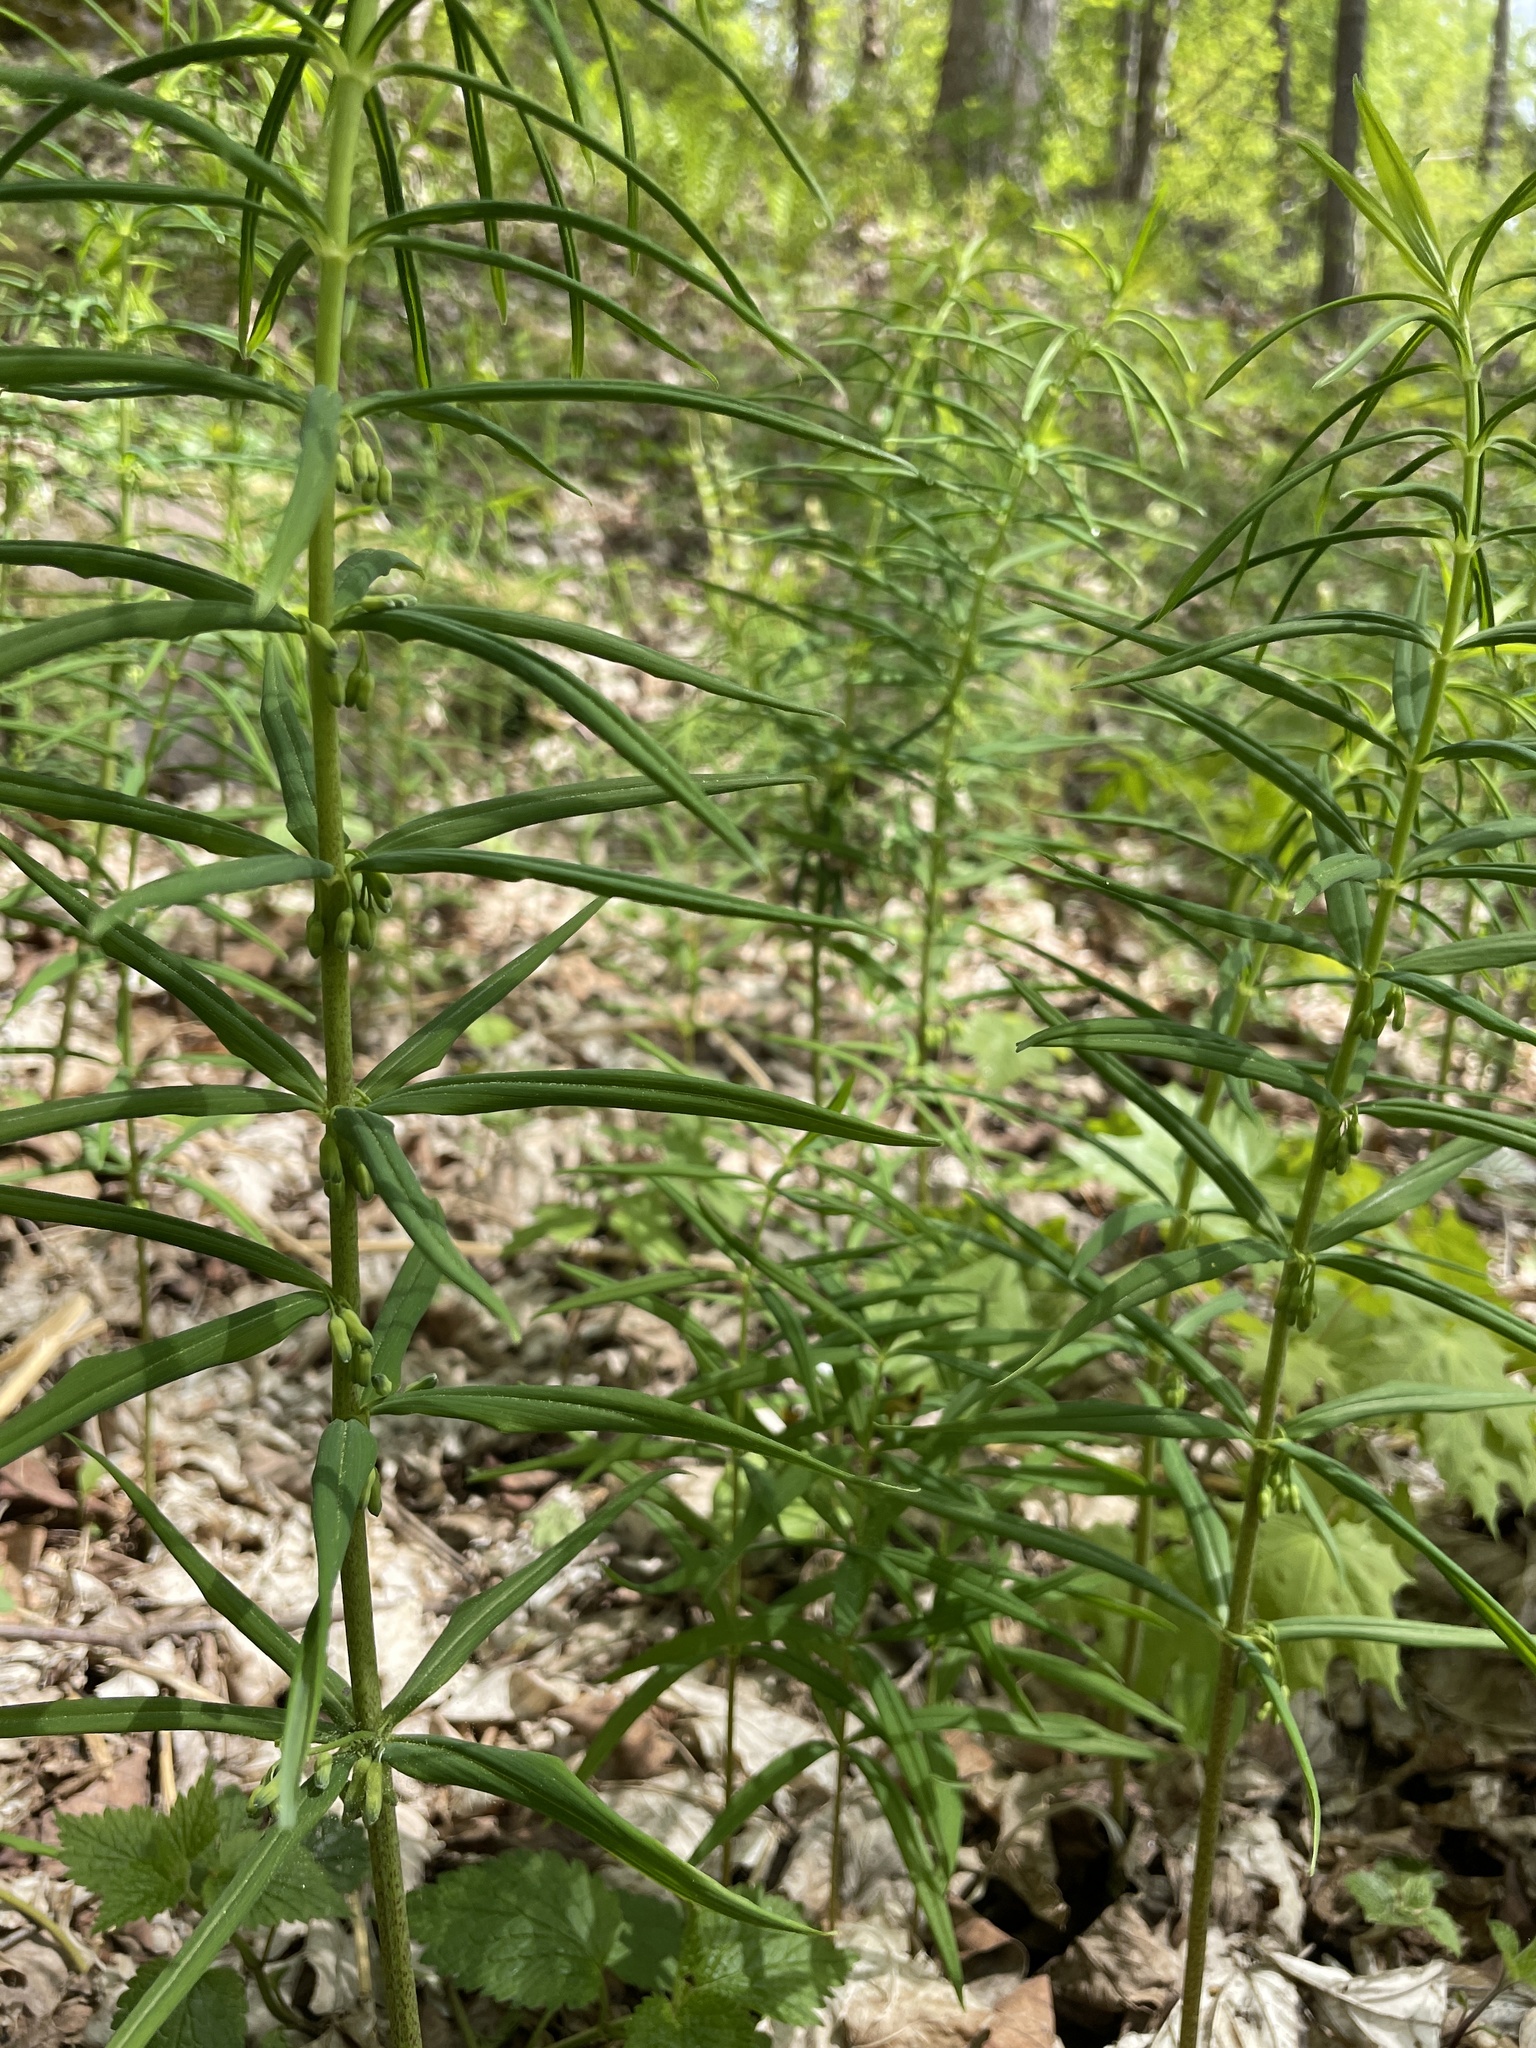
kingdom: Plantae
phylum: Tracheophyta
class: Liliopsida
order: Asparagales
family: Asparagaceae
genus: Polygonatum
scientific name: Polygonatum verticillatum
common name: Whorled solomon's-seal
